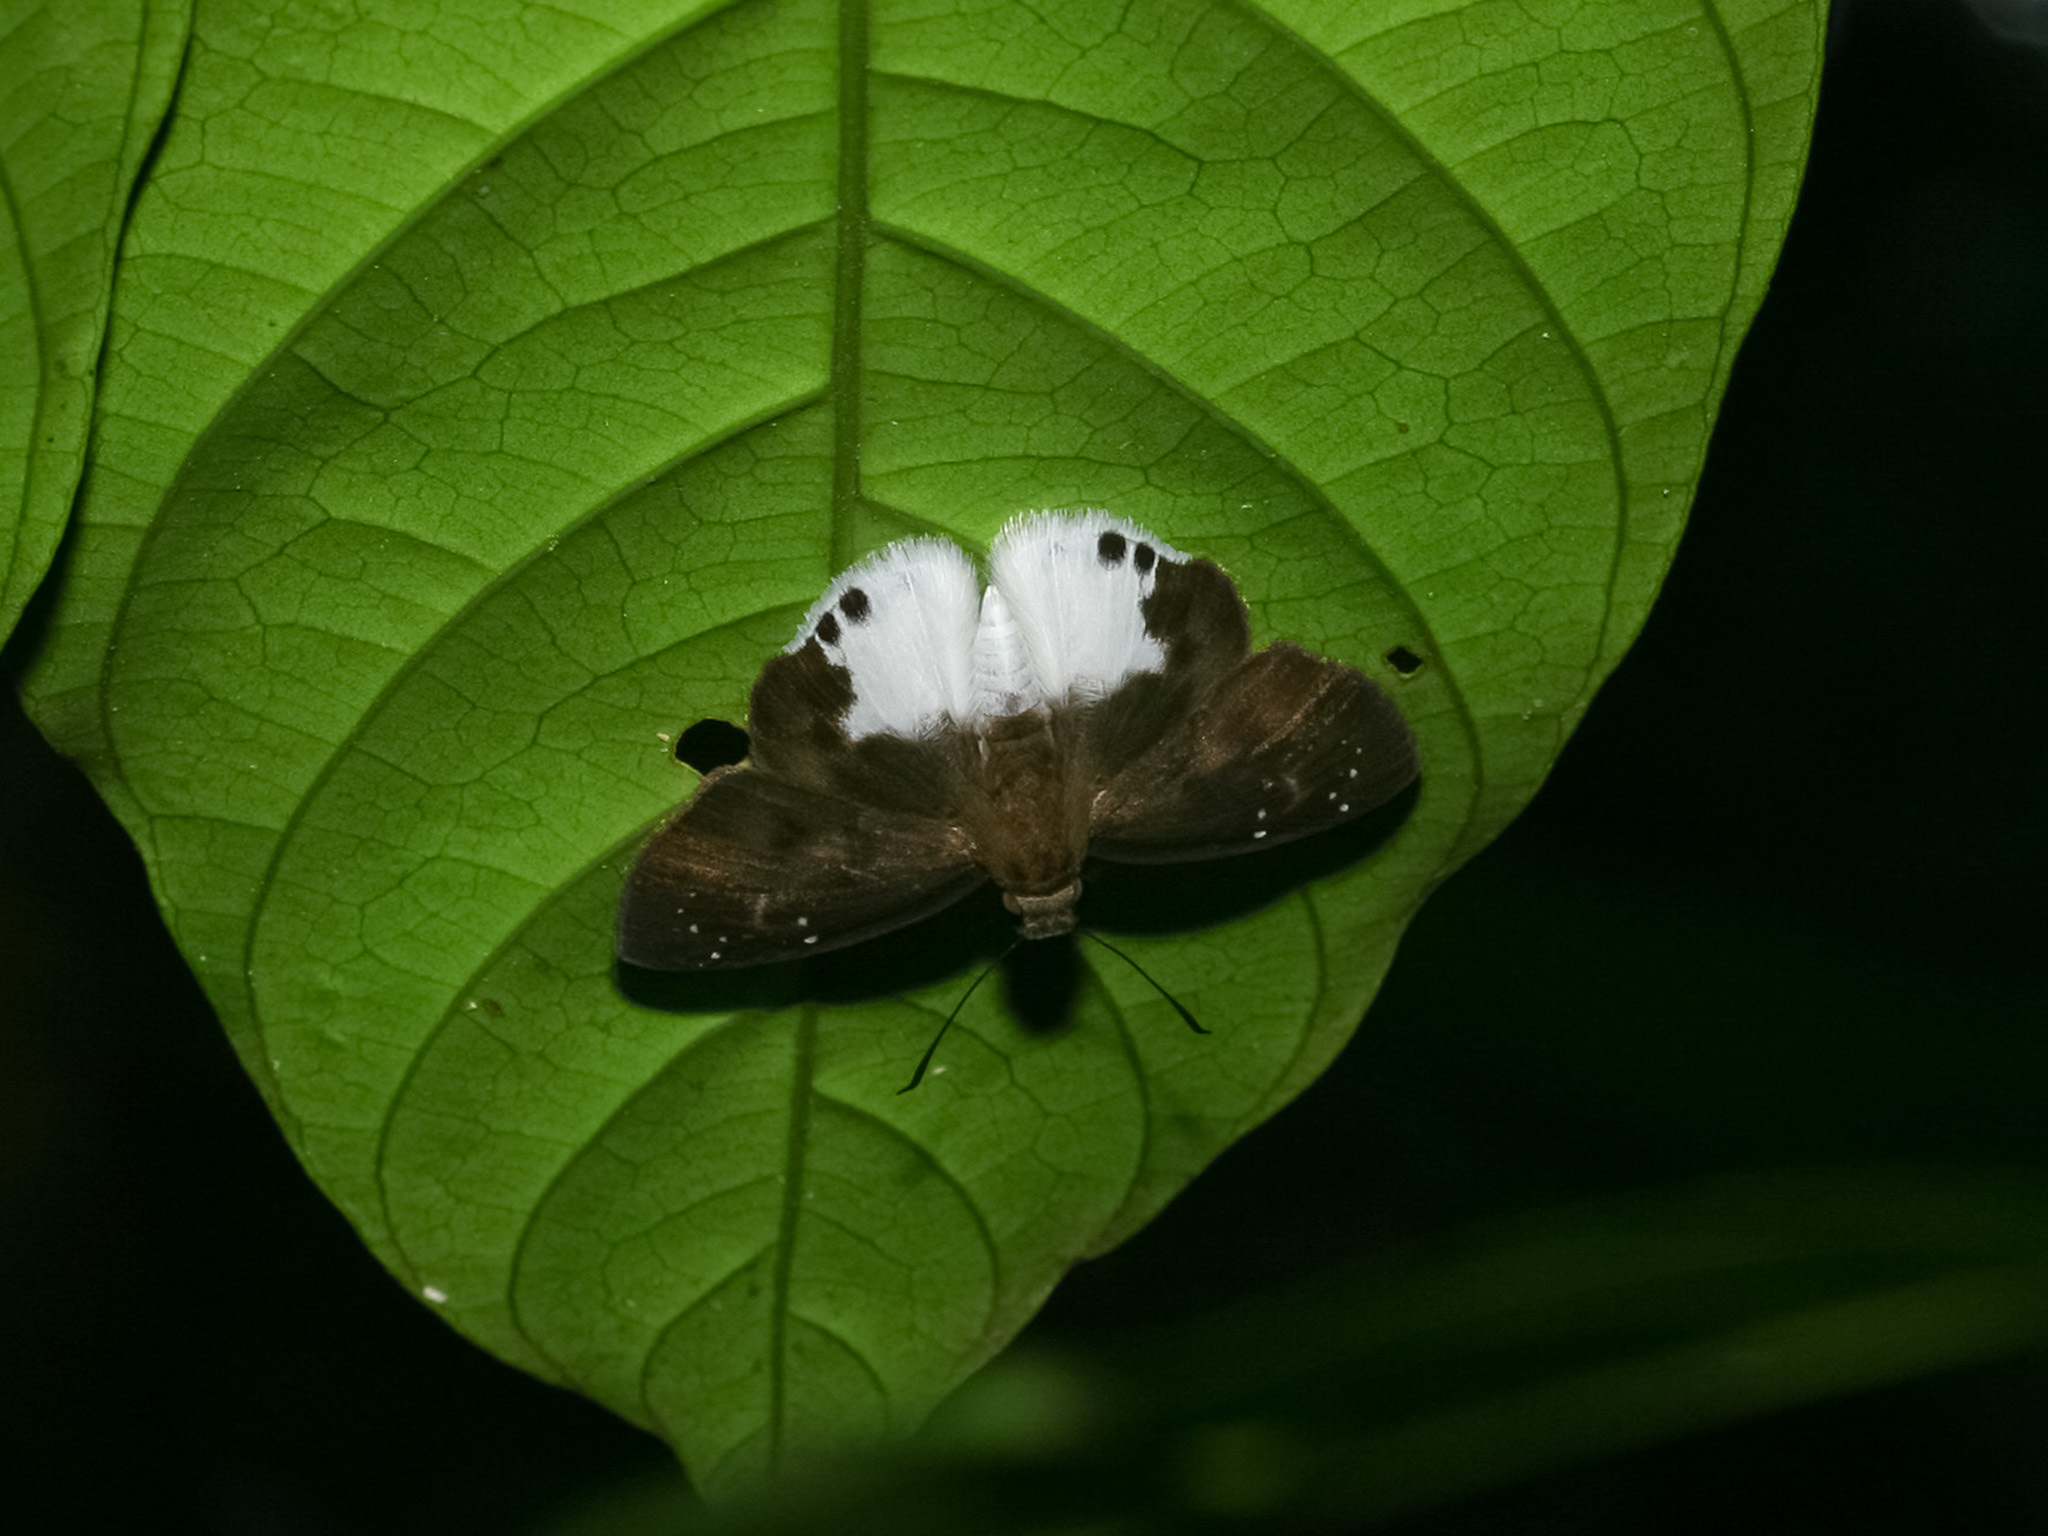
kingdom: Animalia
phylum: Arthropoda
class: Insecta
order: Lepidoptera
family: Hesperiidae
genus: Tagiades
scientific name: Tagiades calligana
